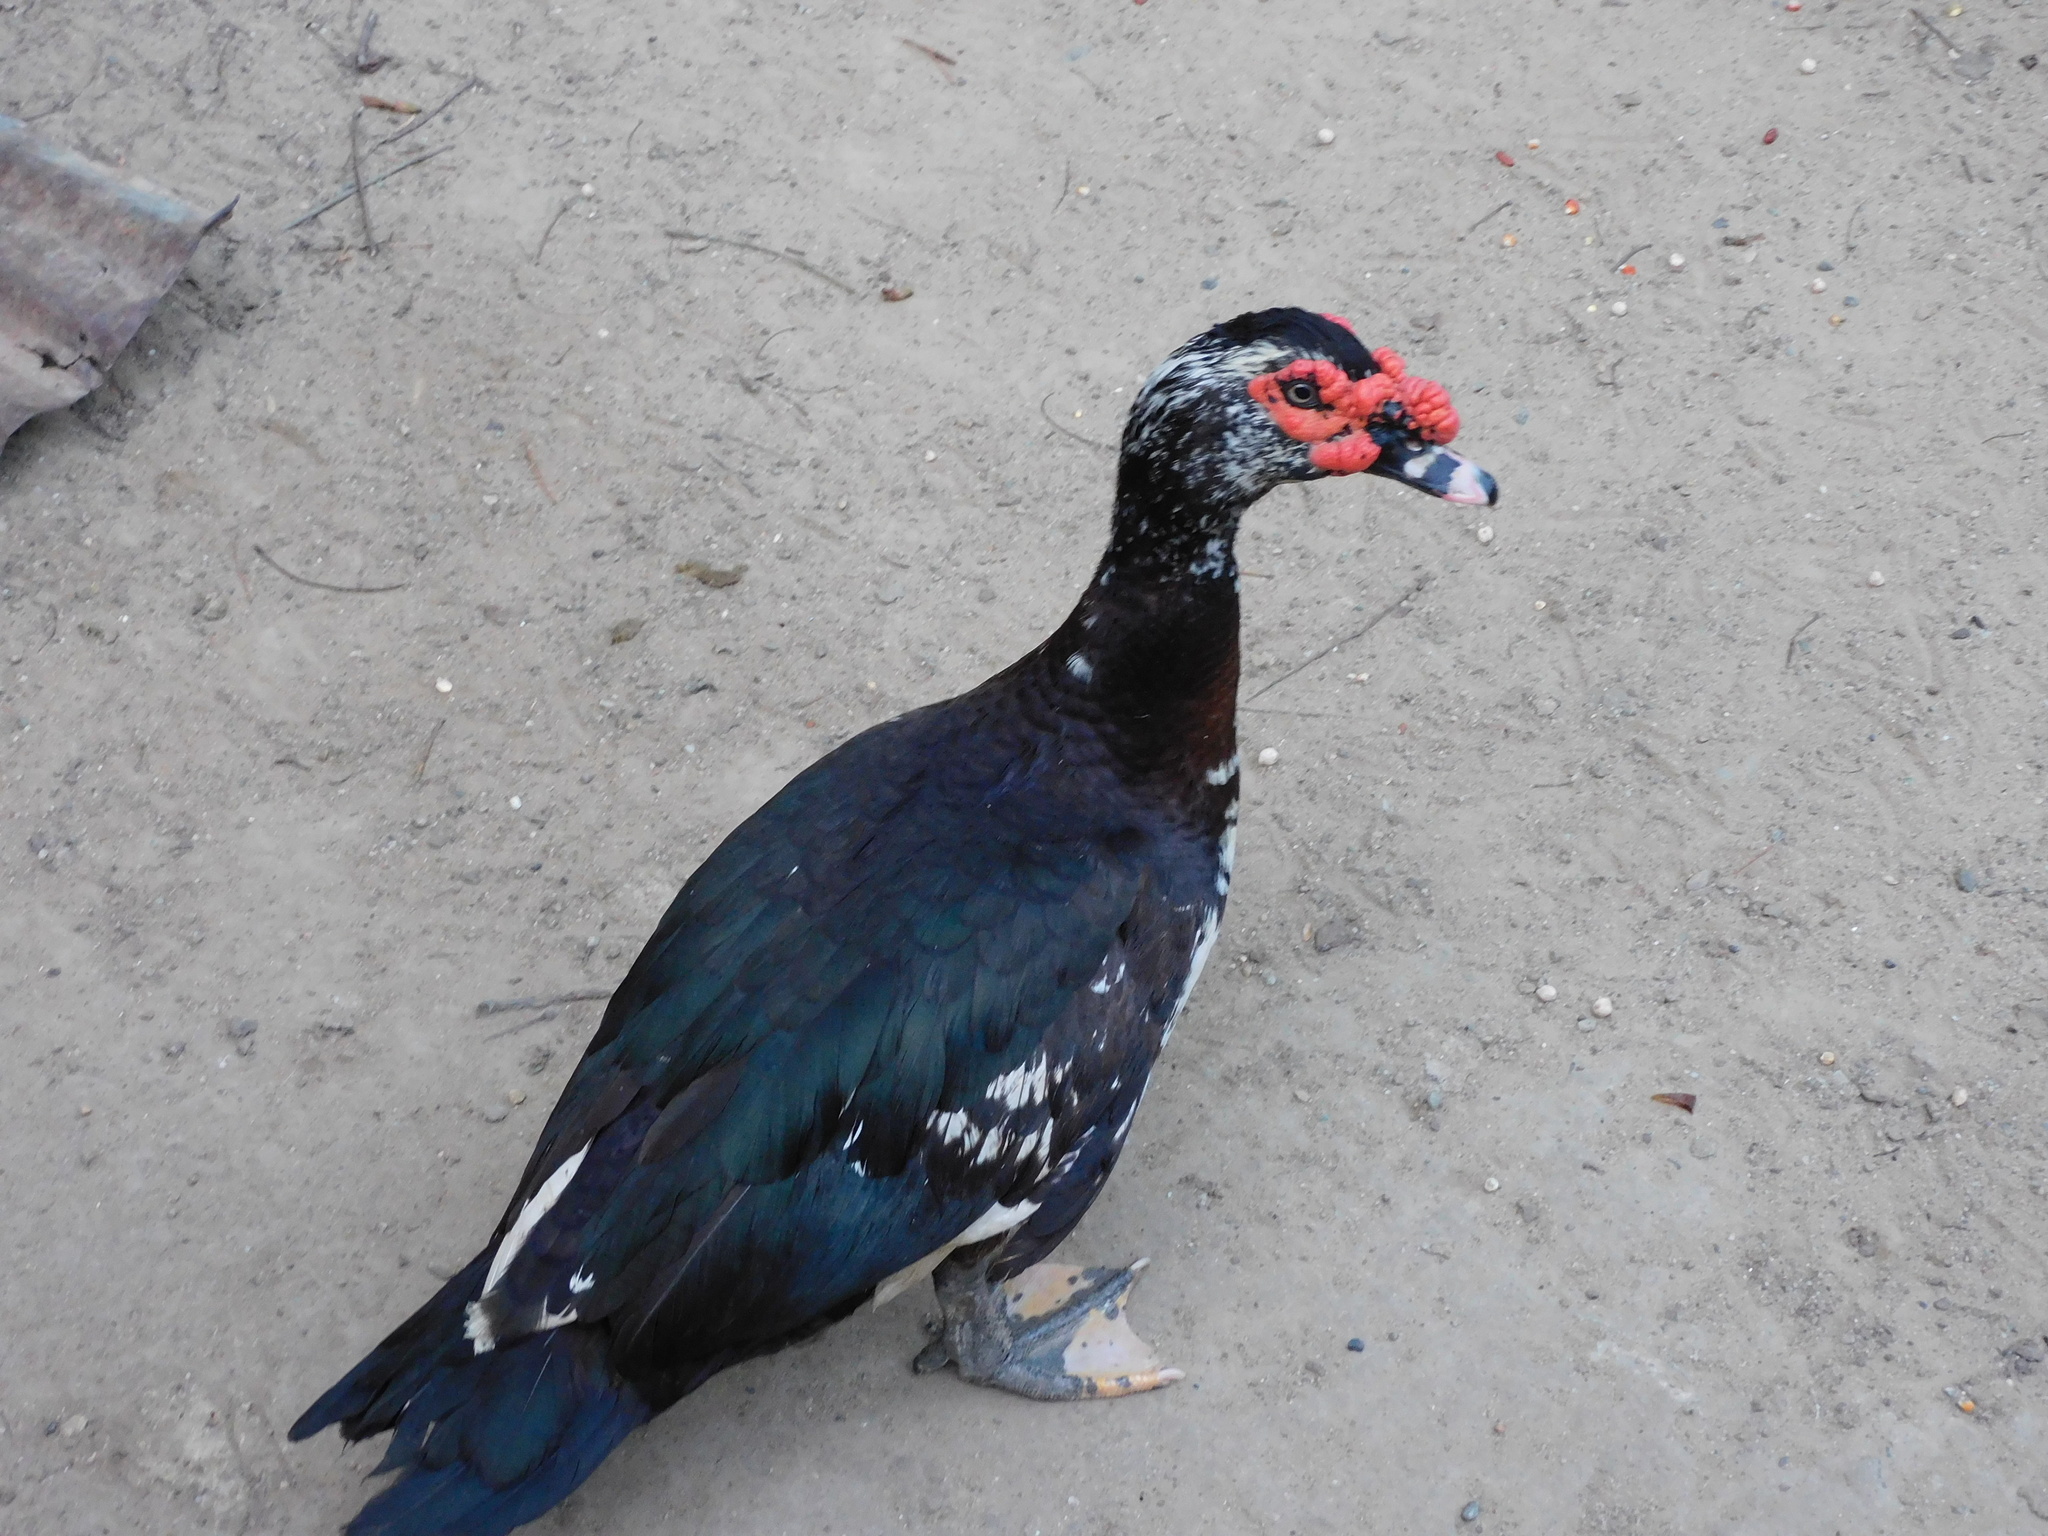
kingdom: Animalia
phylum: Chordata
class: Aves
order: Anseriformes
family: Anatidae
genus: Cairina
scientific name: Cairina moschata
